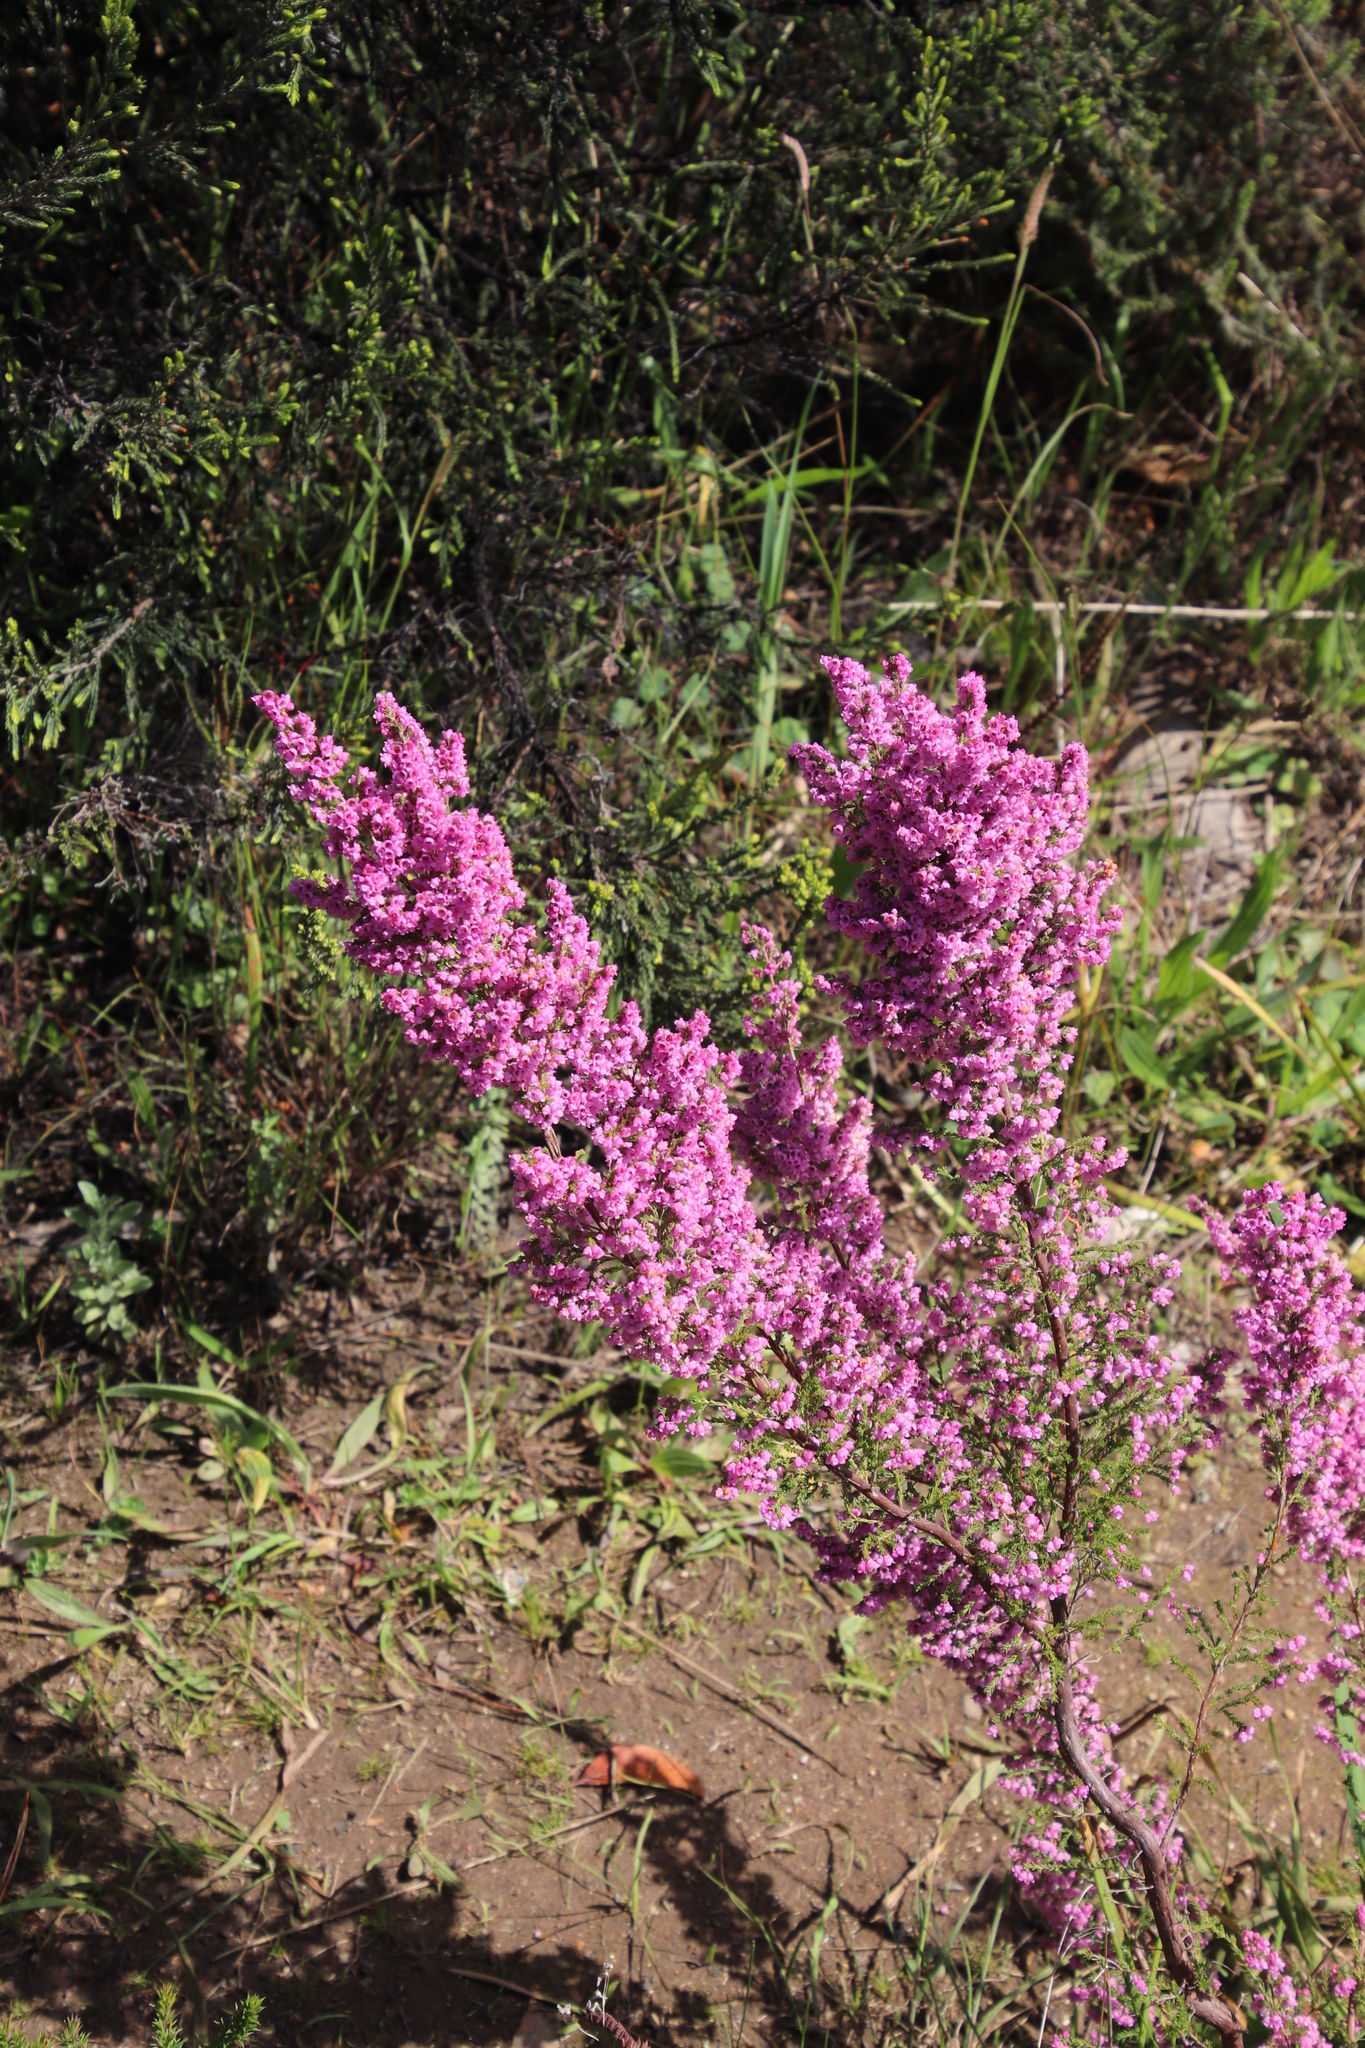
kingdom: Plantae
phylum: Tracheophyta
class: Magnoliopsida
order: Ericales
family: Ericaceae
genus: Erica
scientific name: Erica mauritanica
